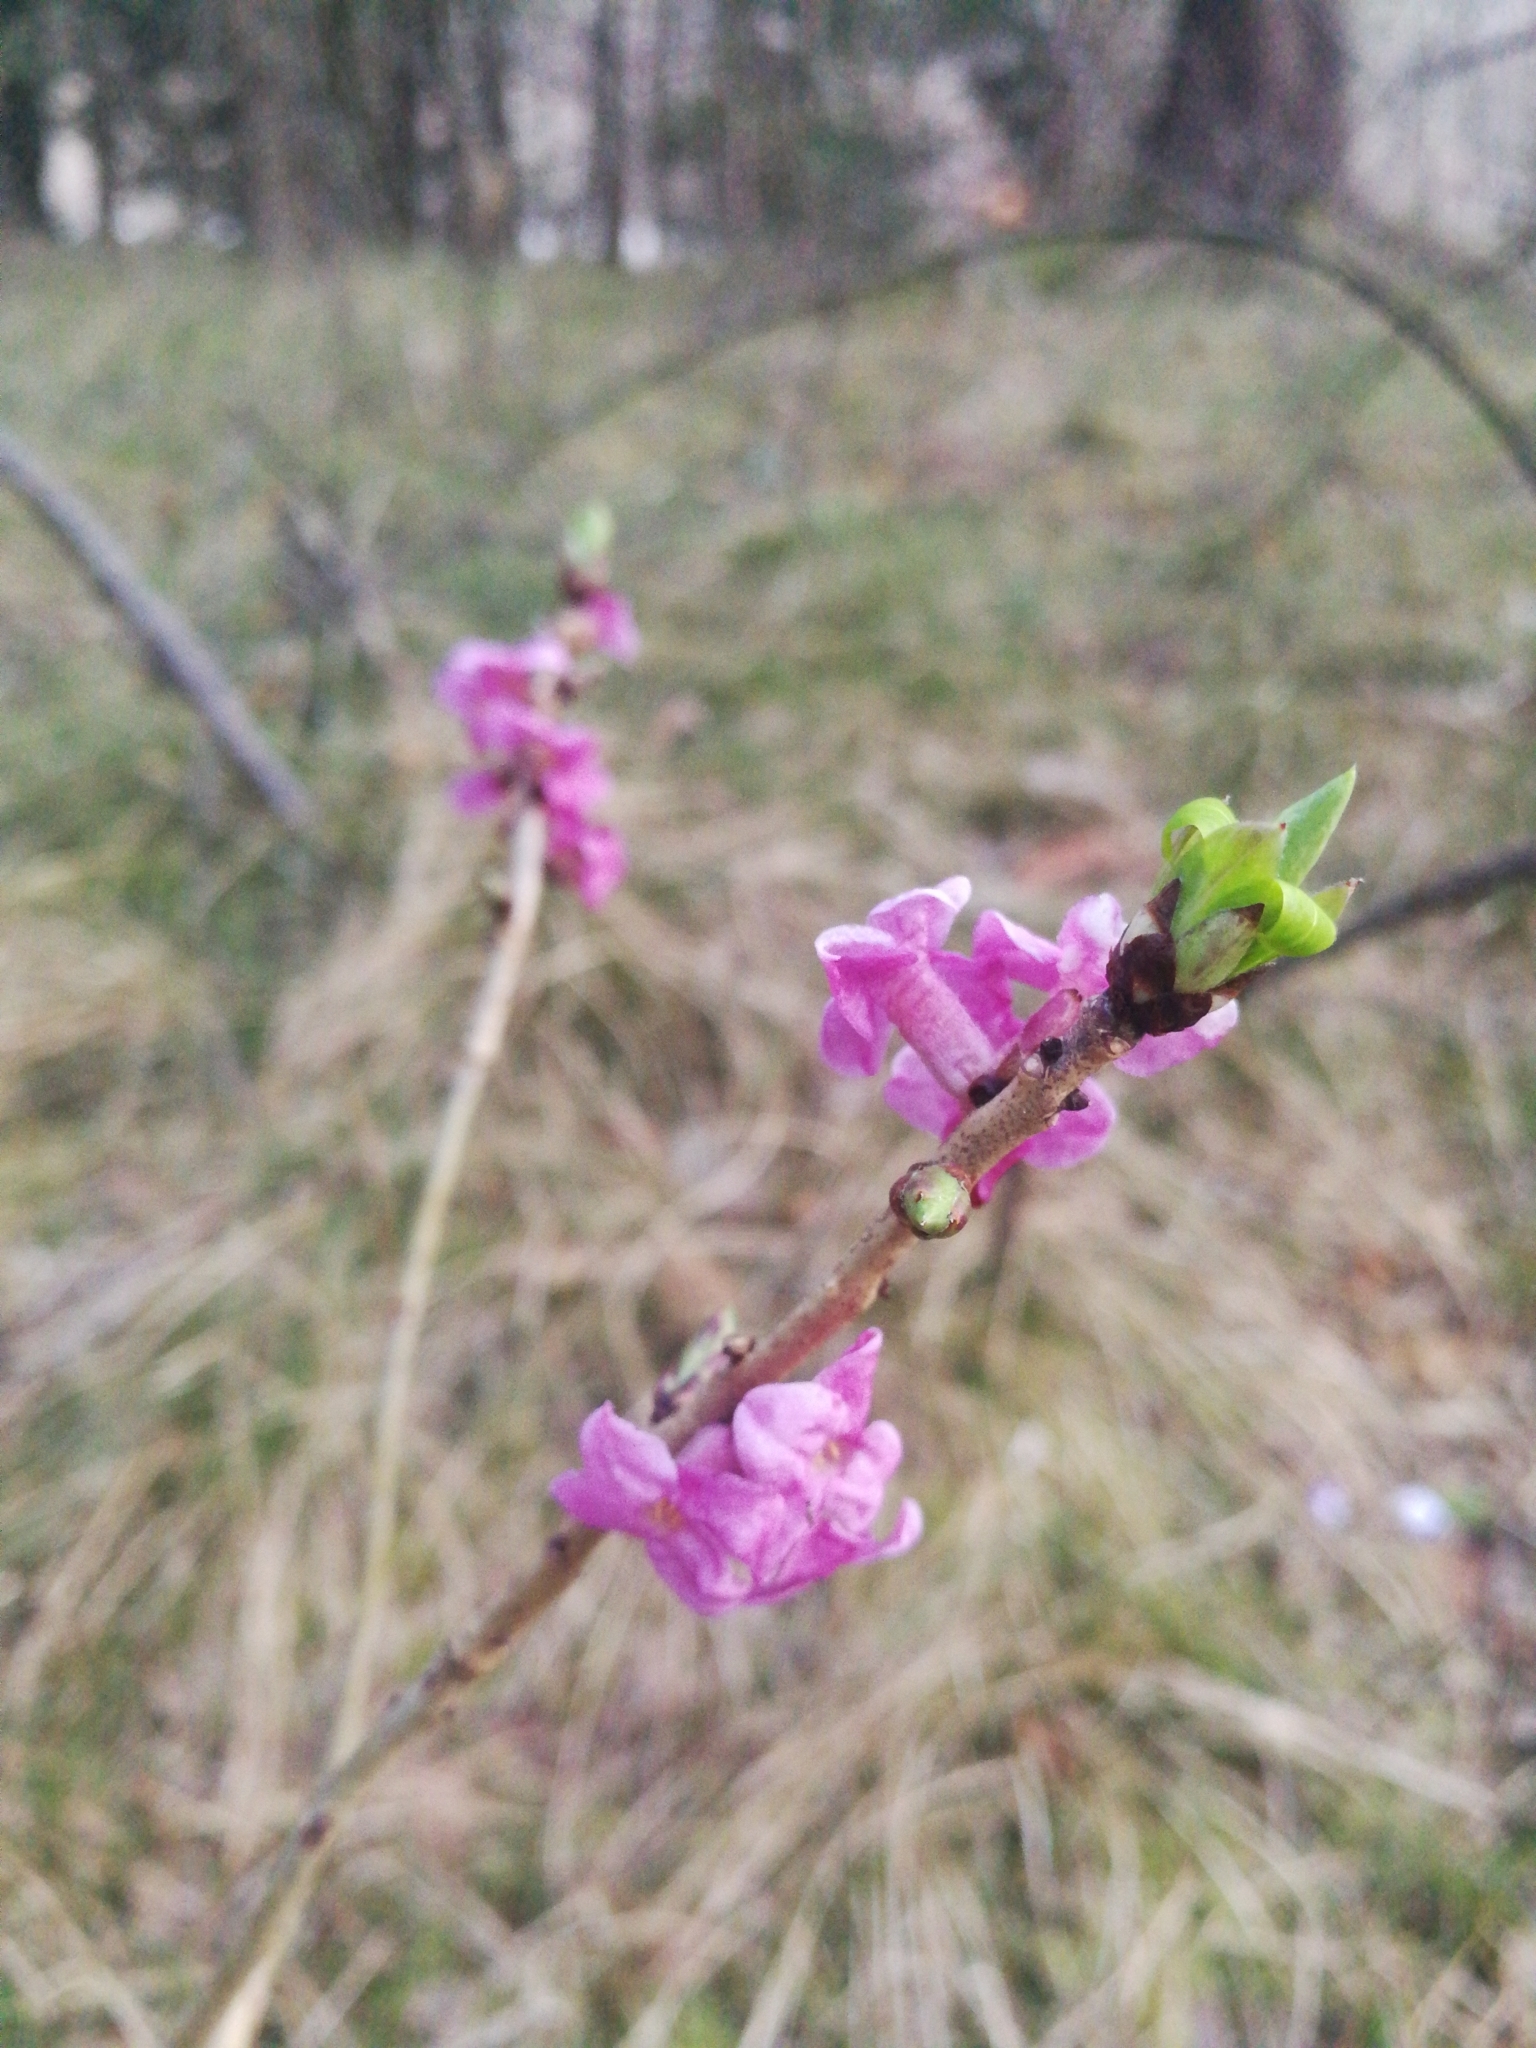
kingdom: Plantae
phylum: Tracheophyta
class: Magnoliopsida
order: Malvales
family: Thymelaeaceae
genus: Daphne
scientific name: Daphne mezereum
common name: Mezereon
